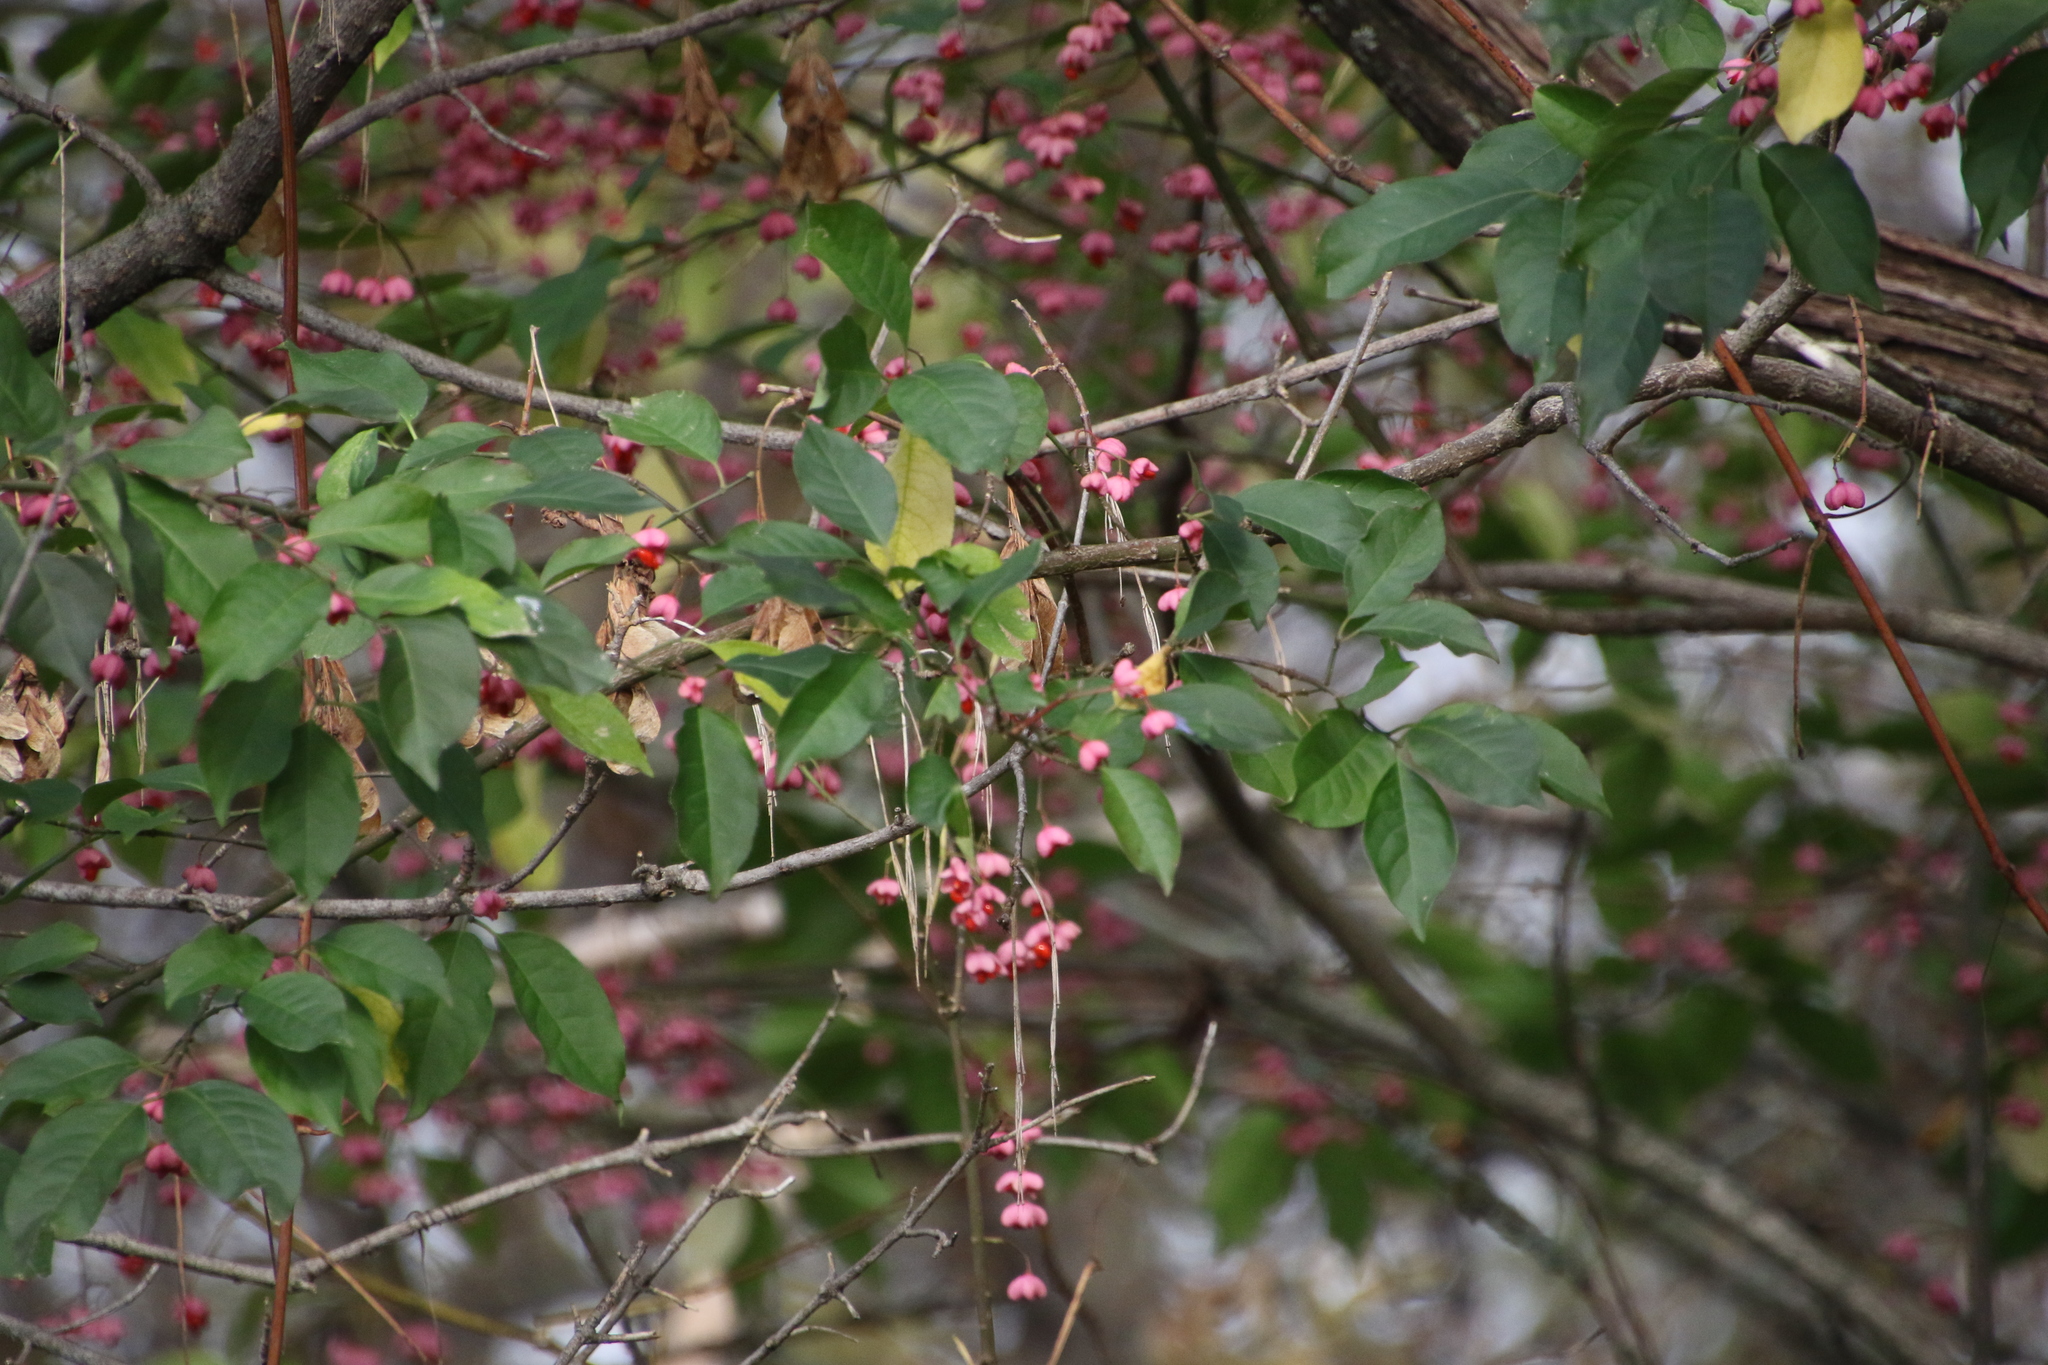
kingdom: Plantae
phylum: Tracheophyta
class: Magnoliopsida
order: Celastrales
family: Celastraceae
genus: Euonymus
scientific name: Euonymus europaeus
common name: Spindle
